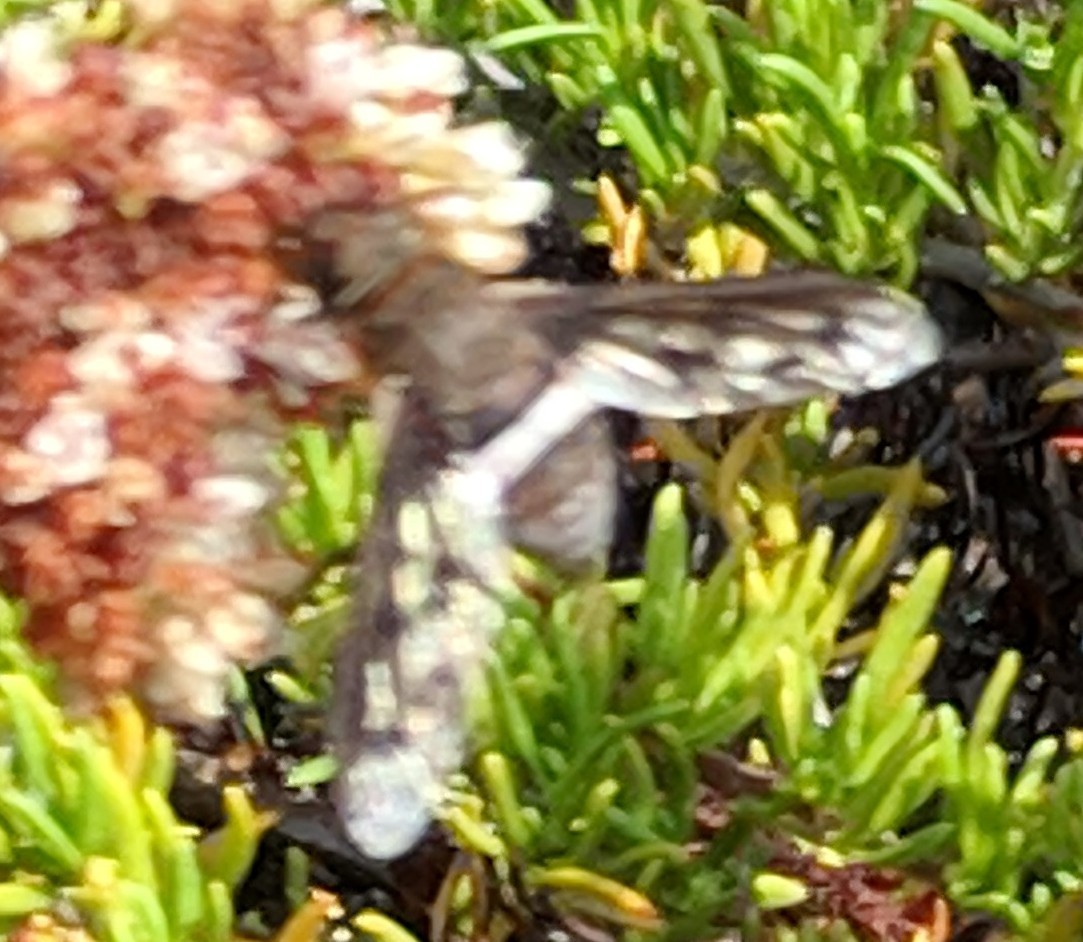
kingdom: Animalia
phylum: Arthropoda
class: Insecta
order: Diptera
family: Bombyliidae
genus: Nyia
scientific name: Nyia gazophylax
